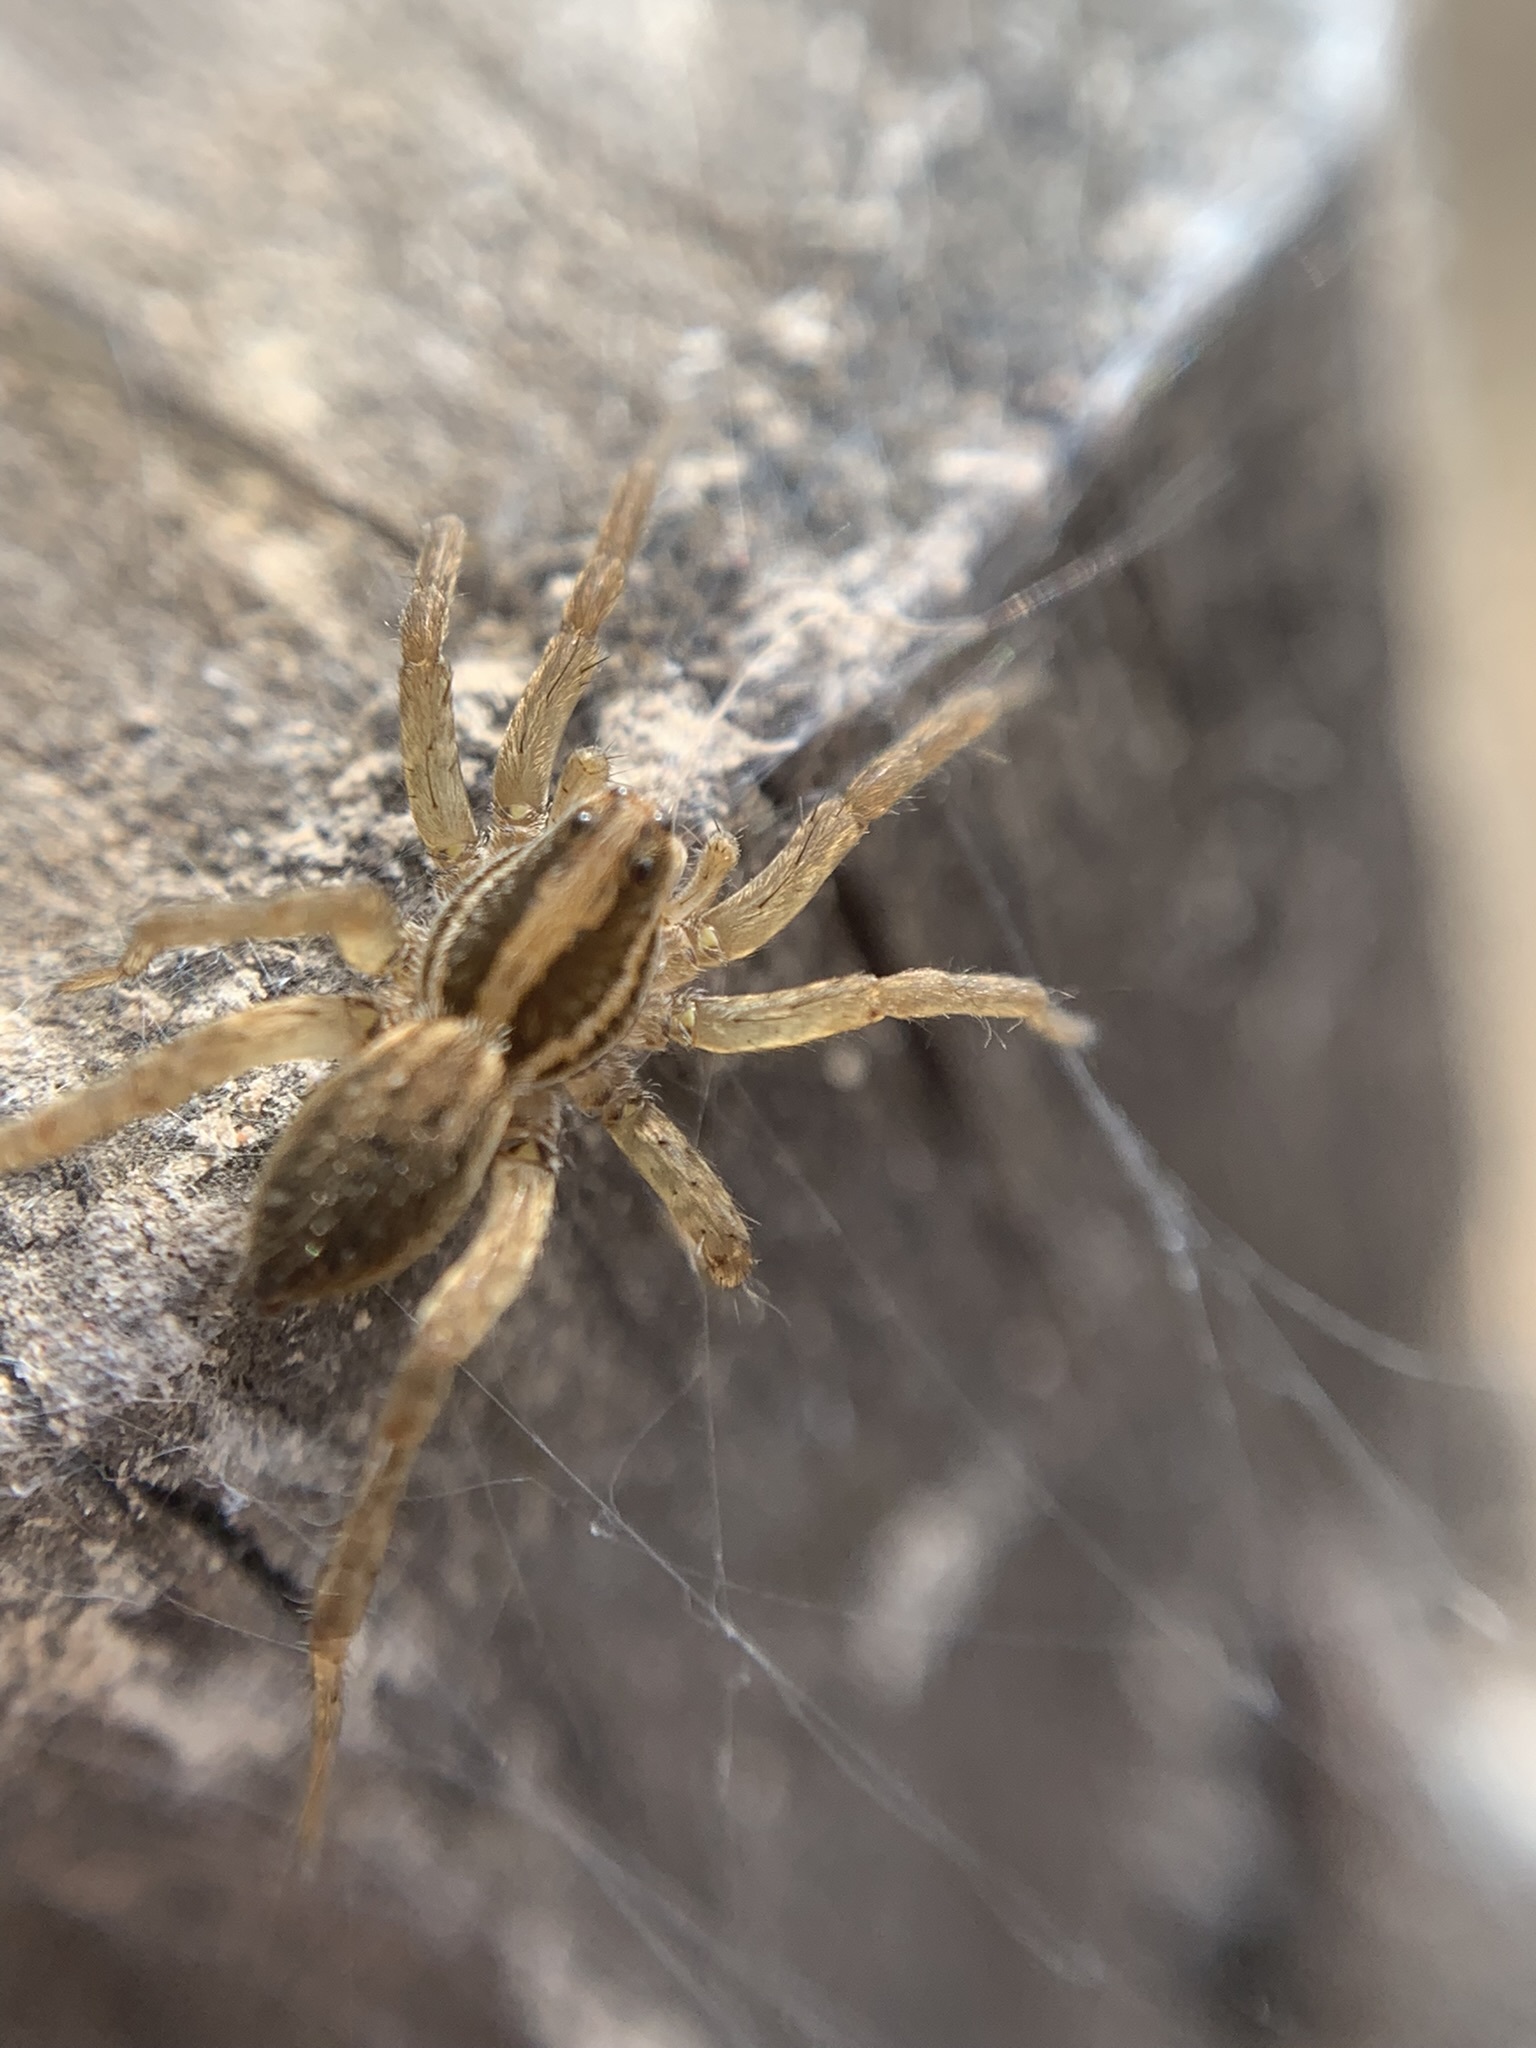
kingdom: Animalia
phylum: Arthropoda
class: Arachnida
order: Araneae
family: Lycosidae
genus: Alopecosa
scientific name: Alopecosa moesta
